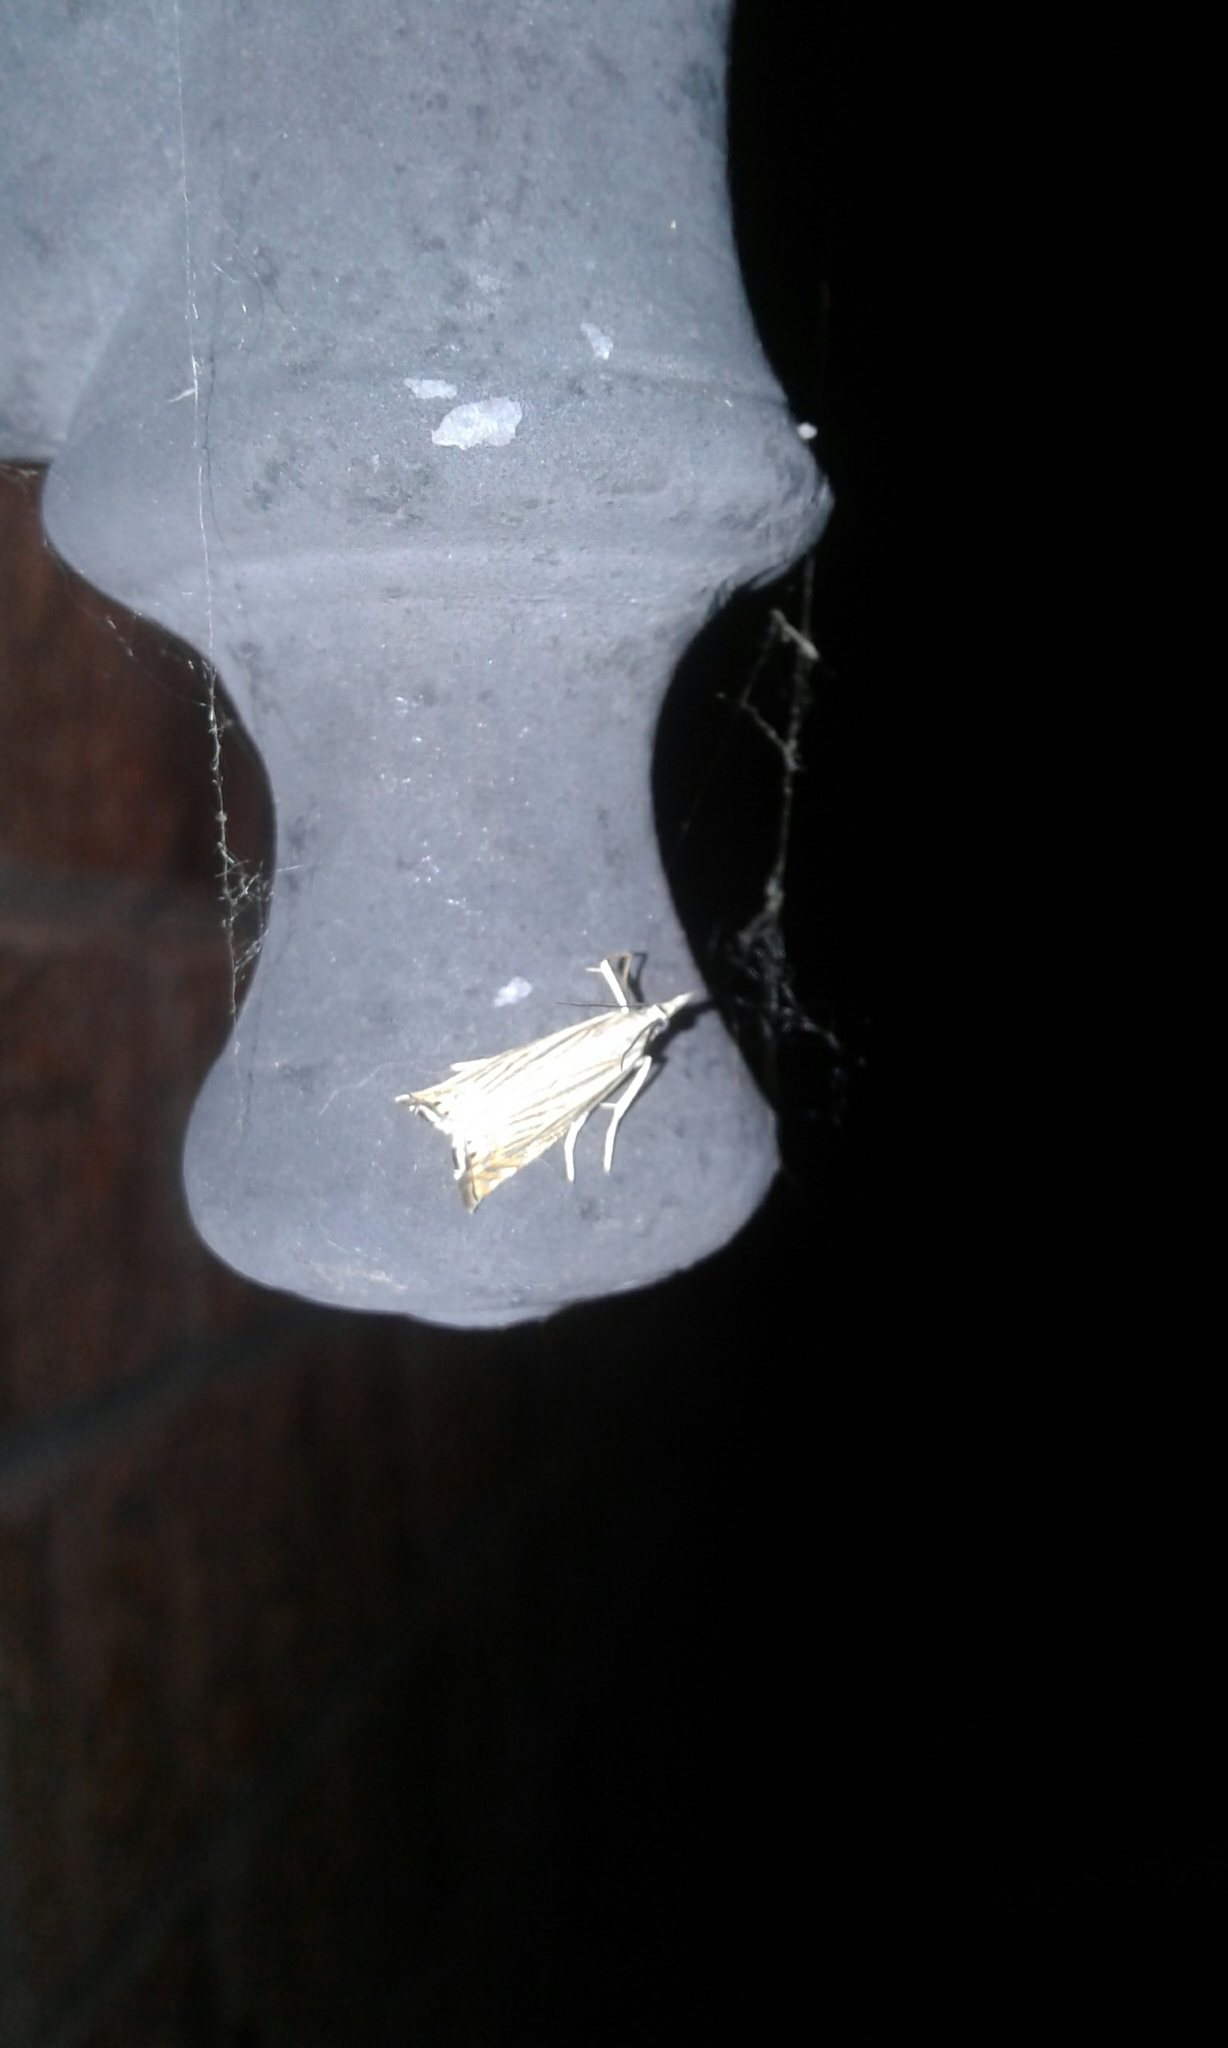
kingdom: Animalia
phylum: Arthropoda
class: Insecta
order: Lepidoptera
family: Crambidae
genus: Chrysoteuchia
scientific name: Chrysoteuchia topiarius
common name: Topiary grass-veneer
